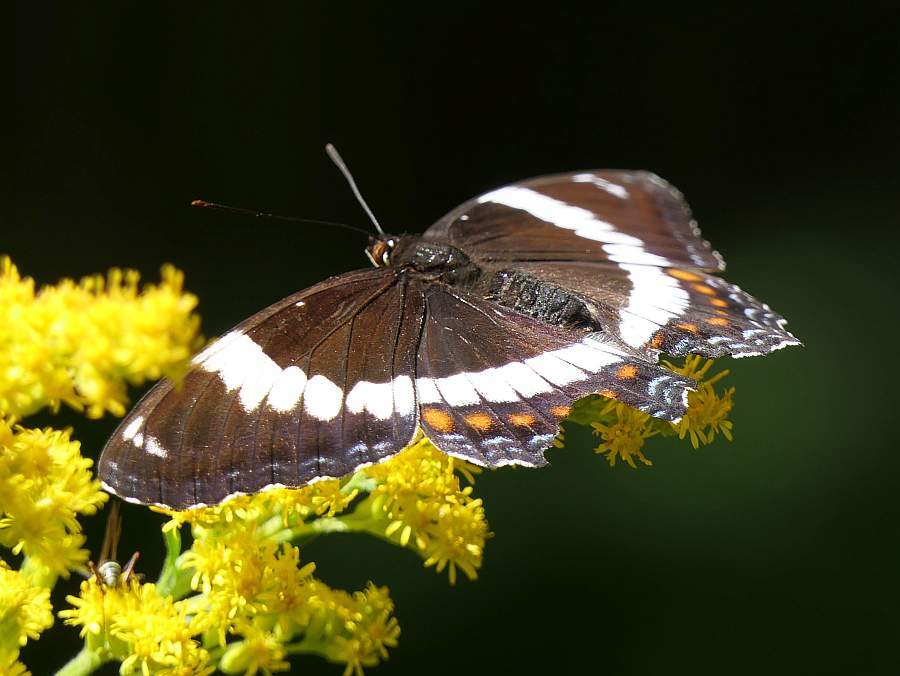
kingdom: Animalia
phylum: Arthropoda
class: Insecta
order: Lepidoptera
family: Nymphalidae
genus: Limenitis
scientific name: Limenitis arthemis
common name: Red-spotted admiral
